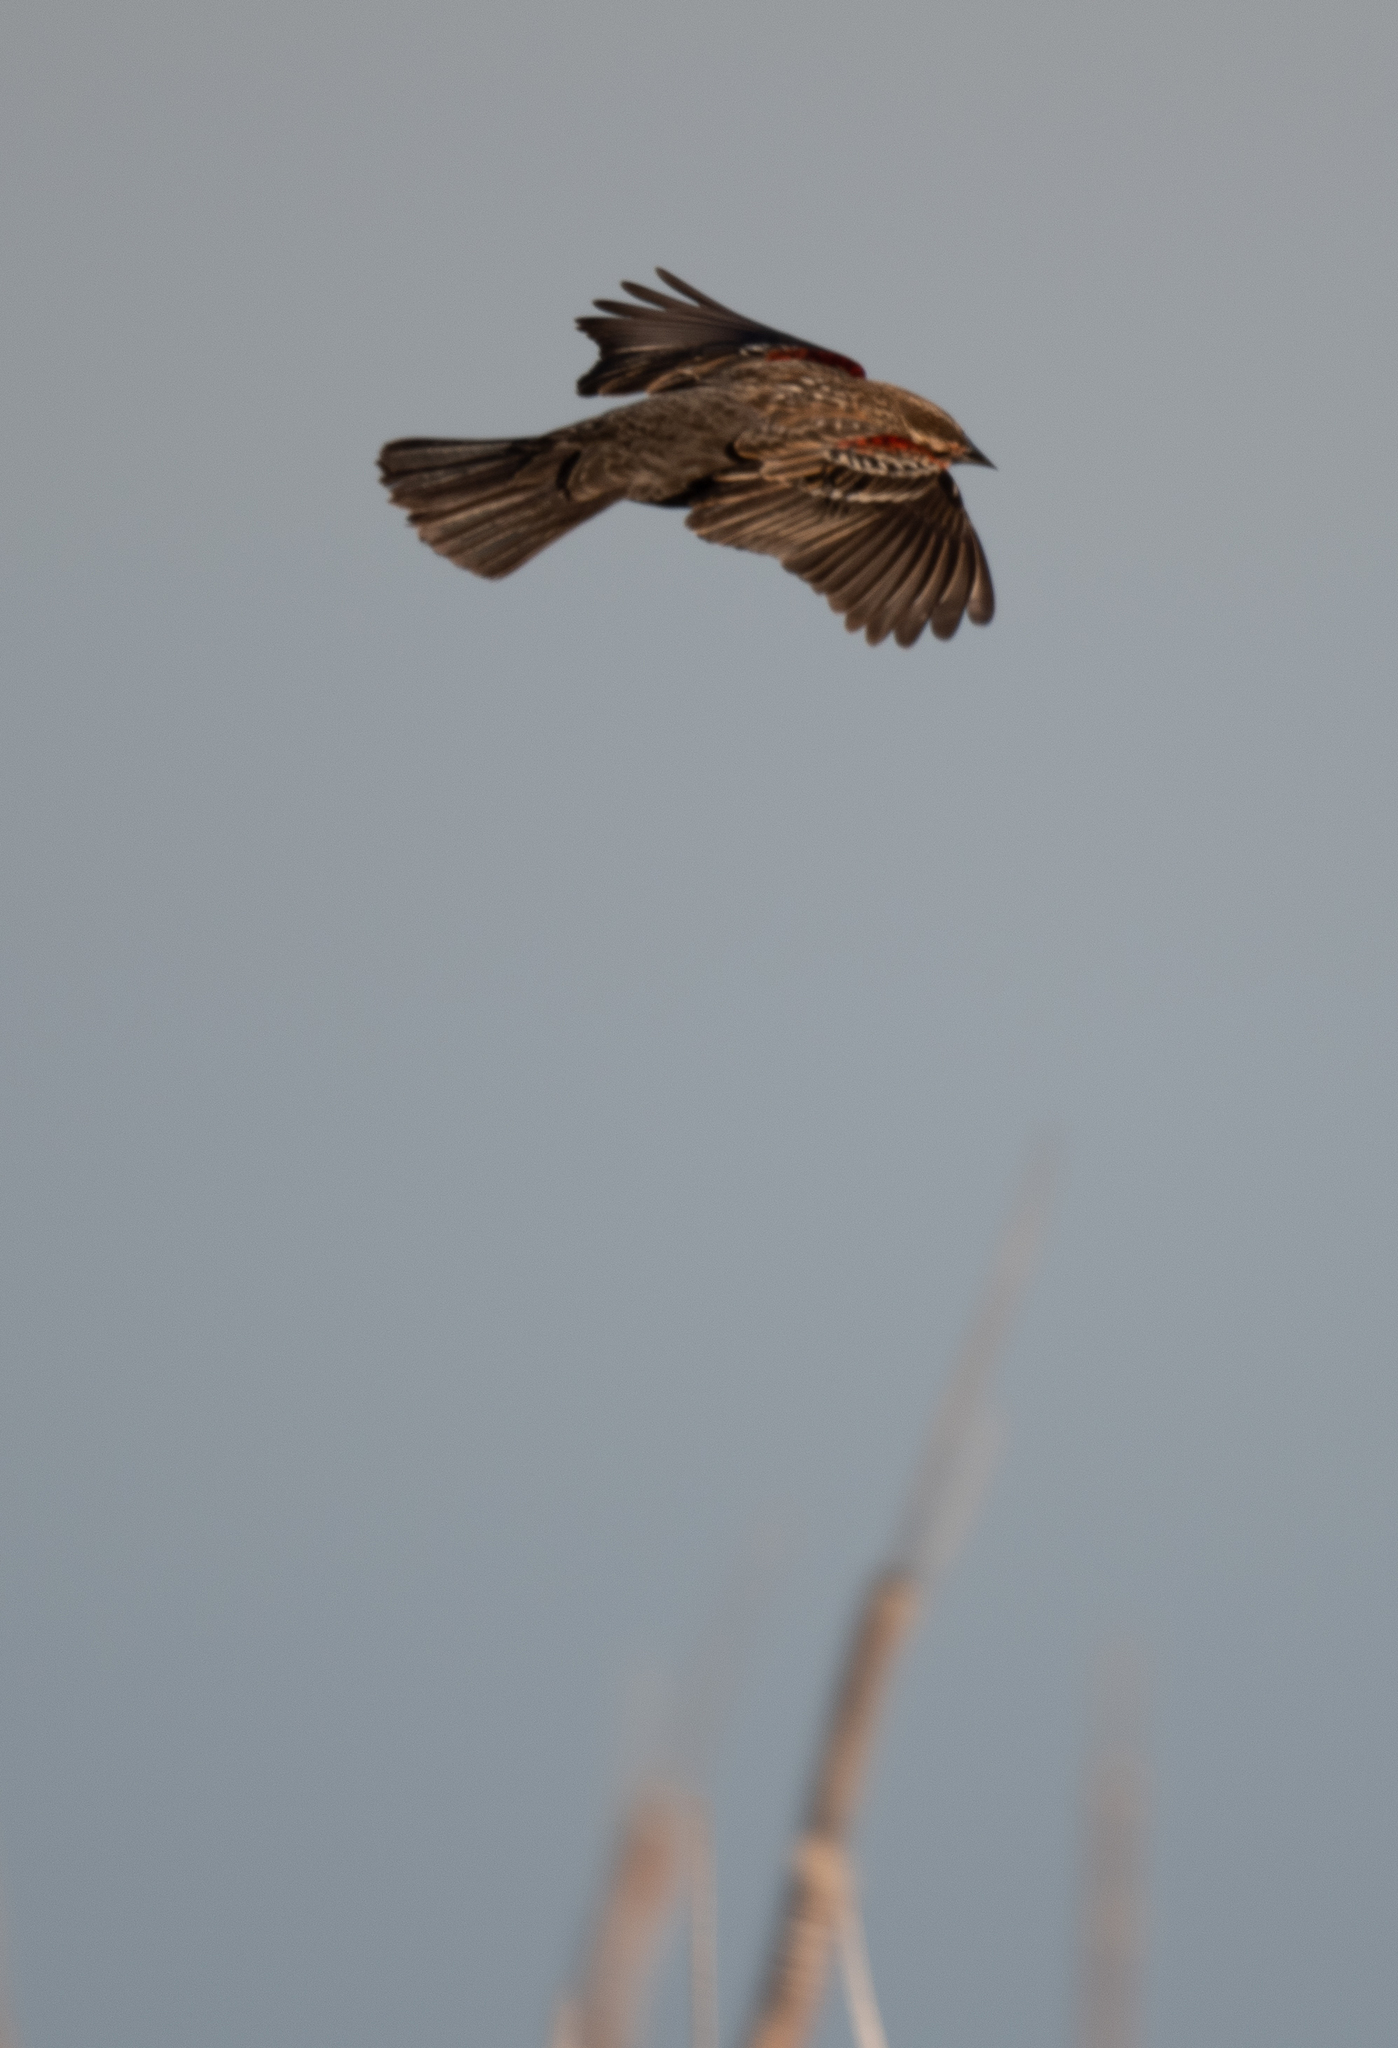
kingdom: Animalia
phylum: Chordata
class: Aves
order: Passeriformes
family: Icteridae
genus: Agelaius
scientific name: Agelaius phoeniceus
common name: Red-winged blackbird
